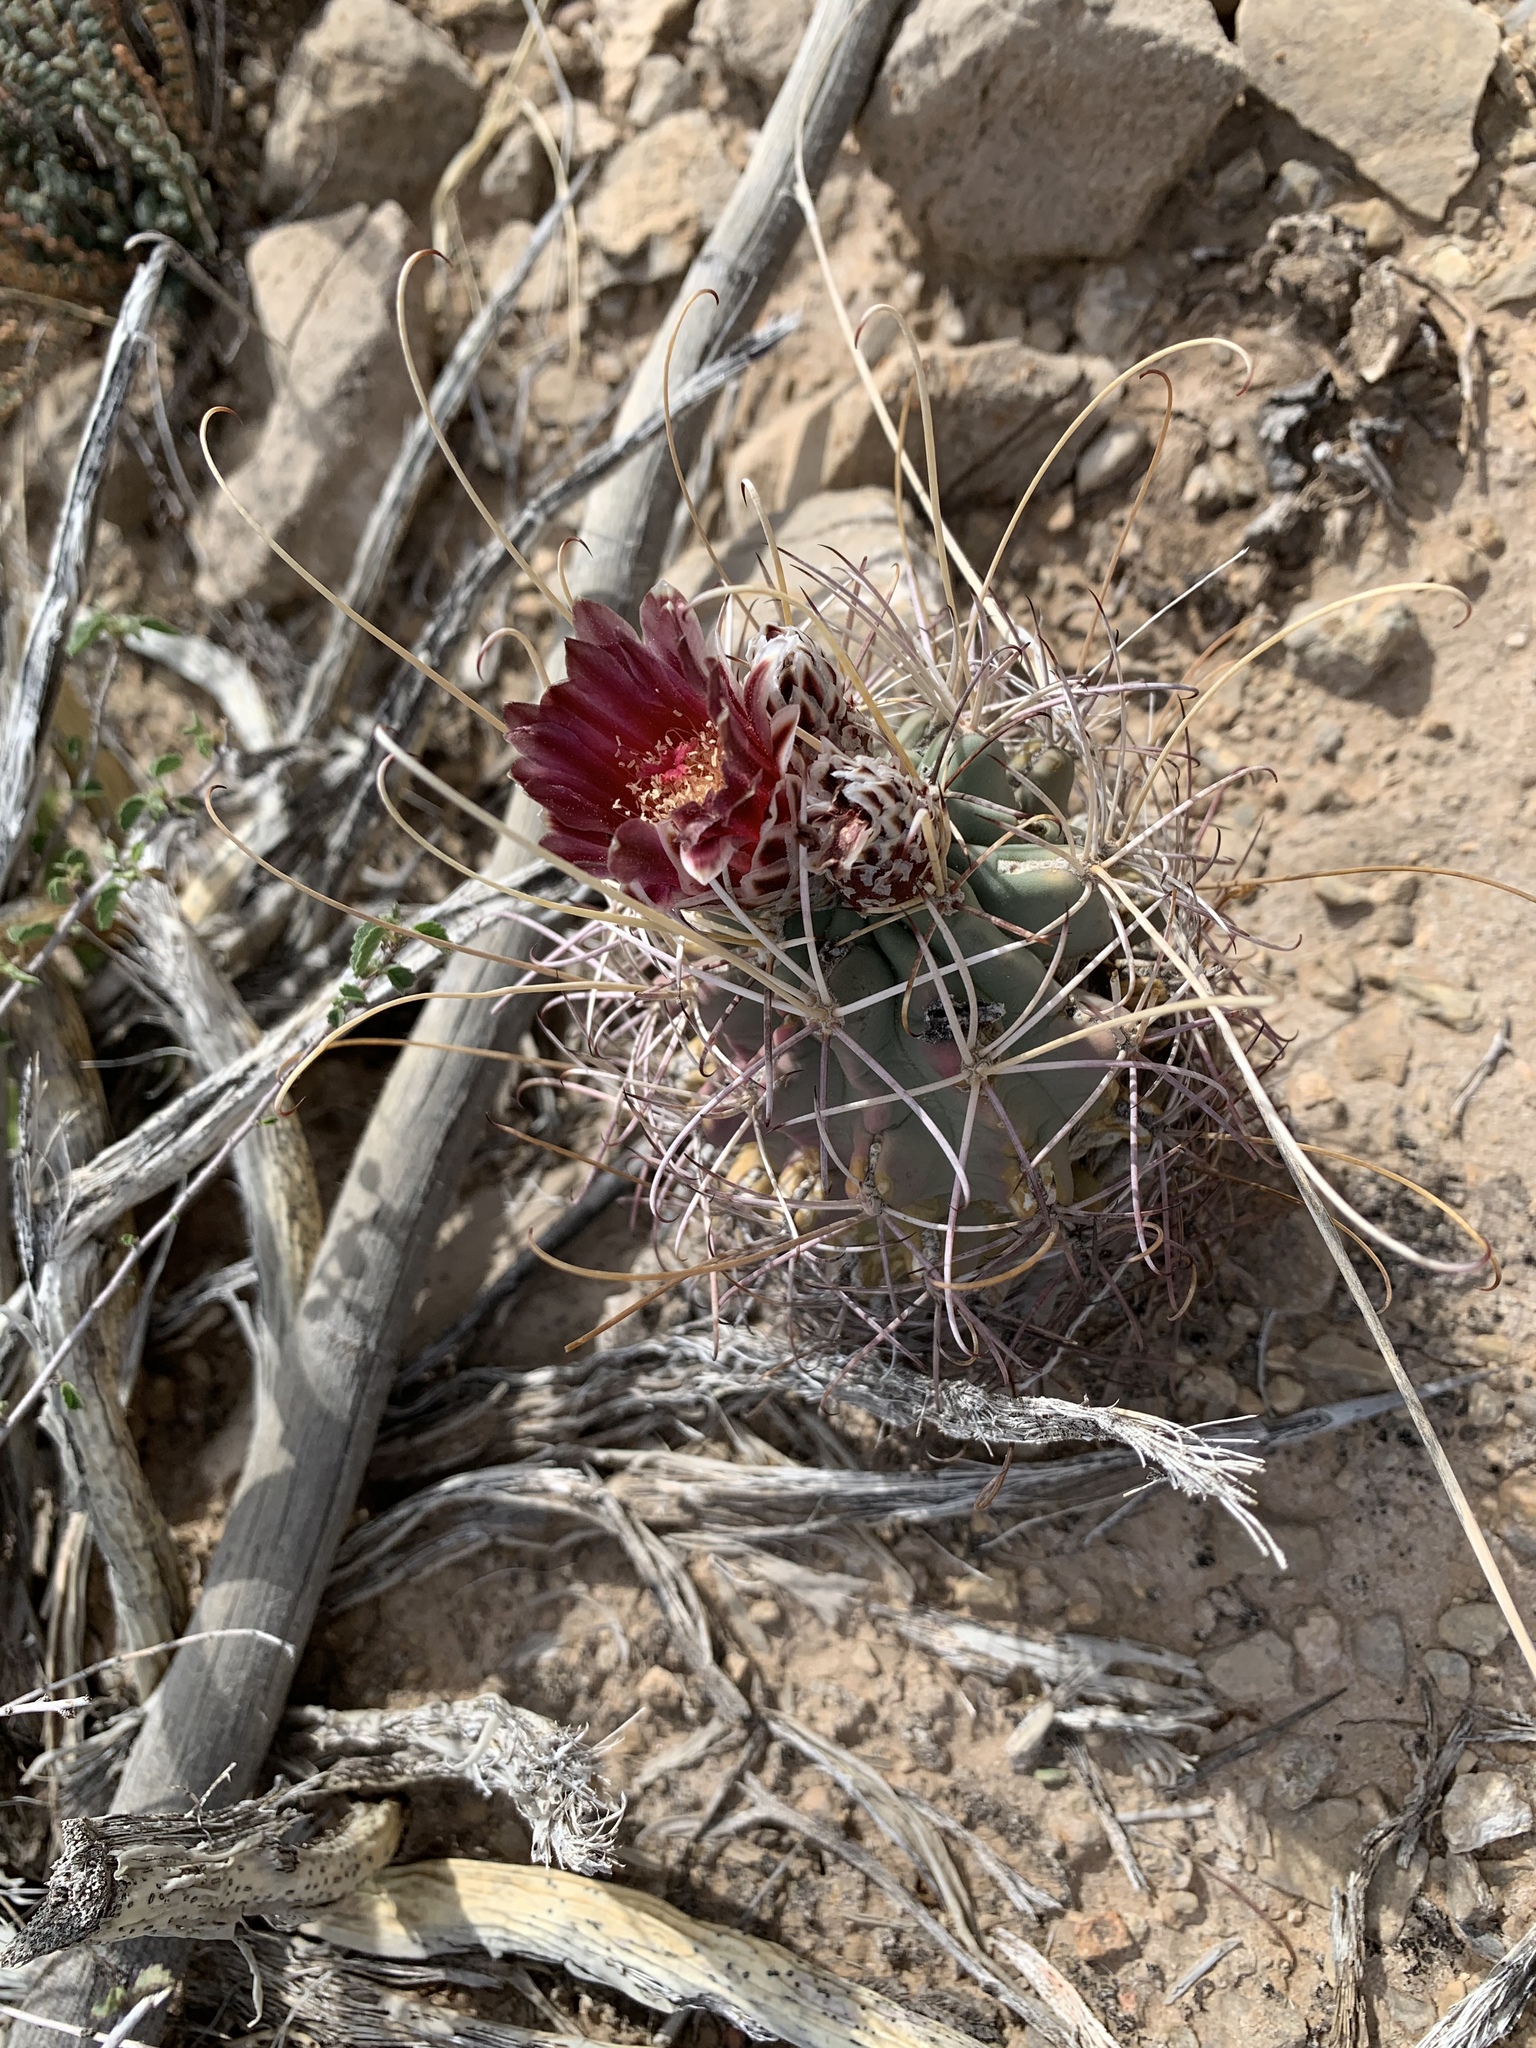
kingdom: Plantae
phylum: Tracheophyta
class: Magnoliopsida
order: Caryophyllales
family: Cactaceae
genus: Ferocactus
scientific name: Ferocactus uncinatus
